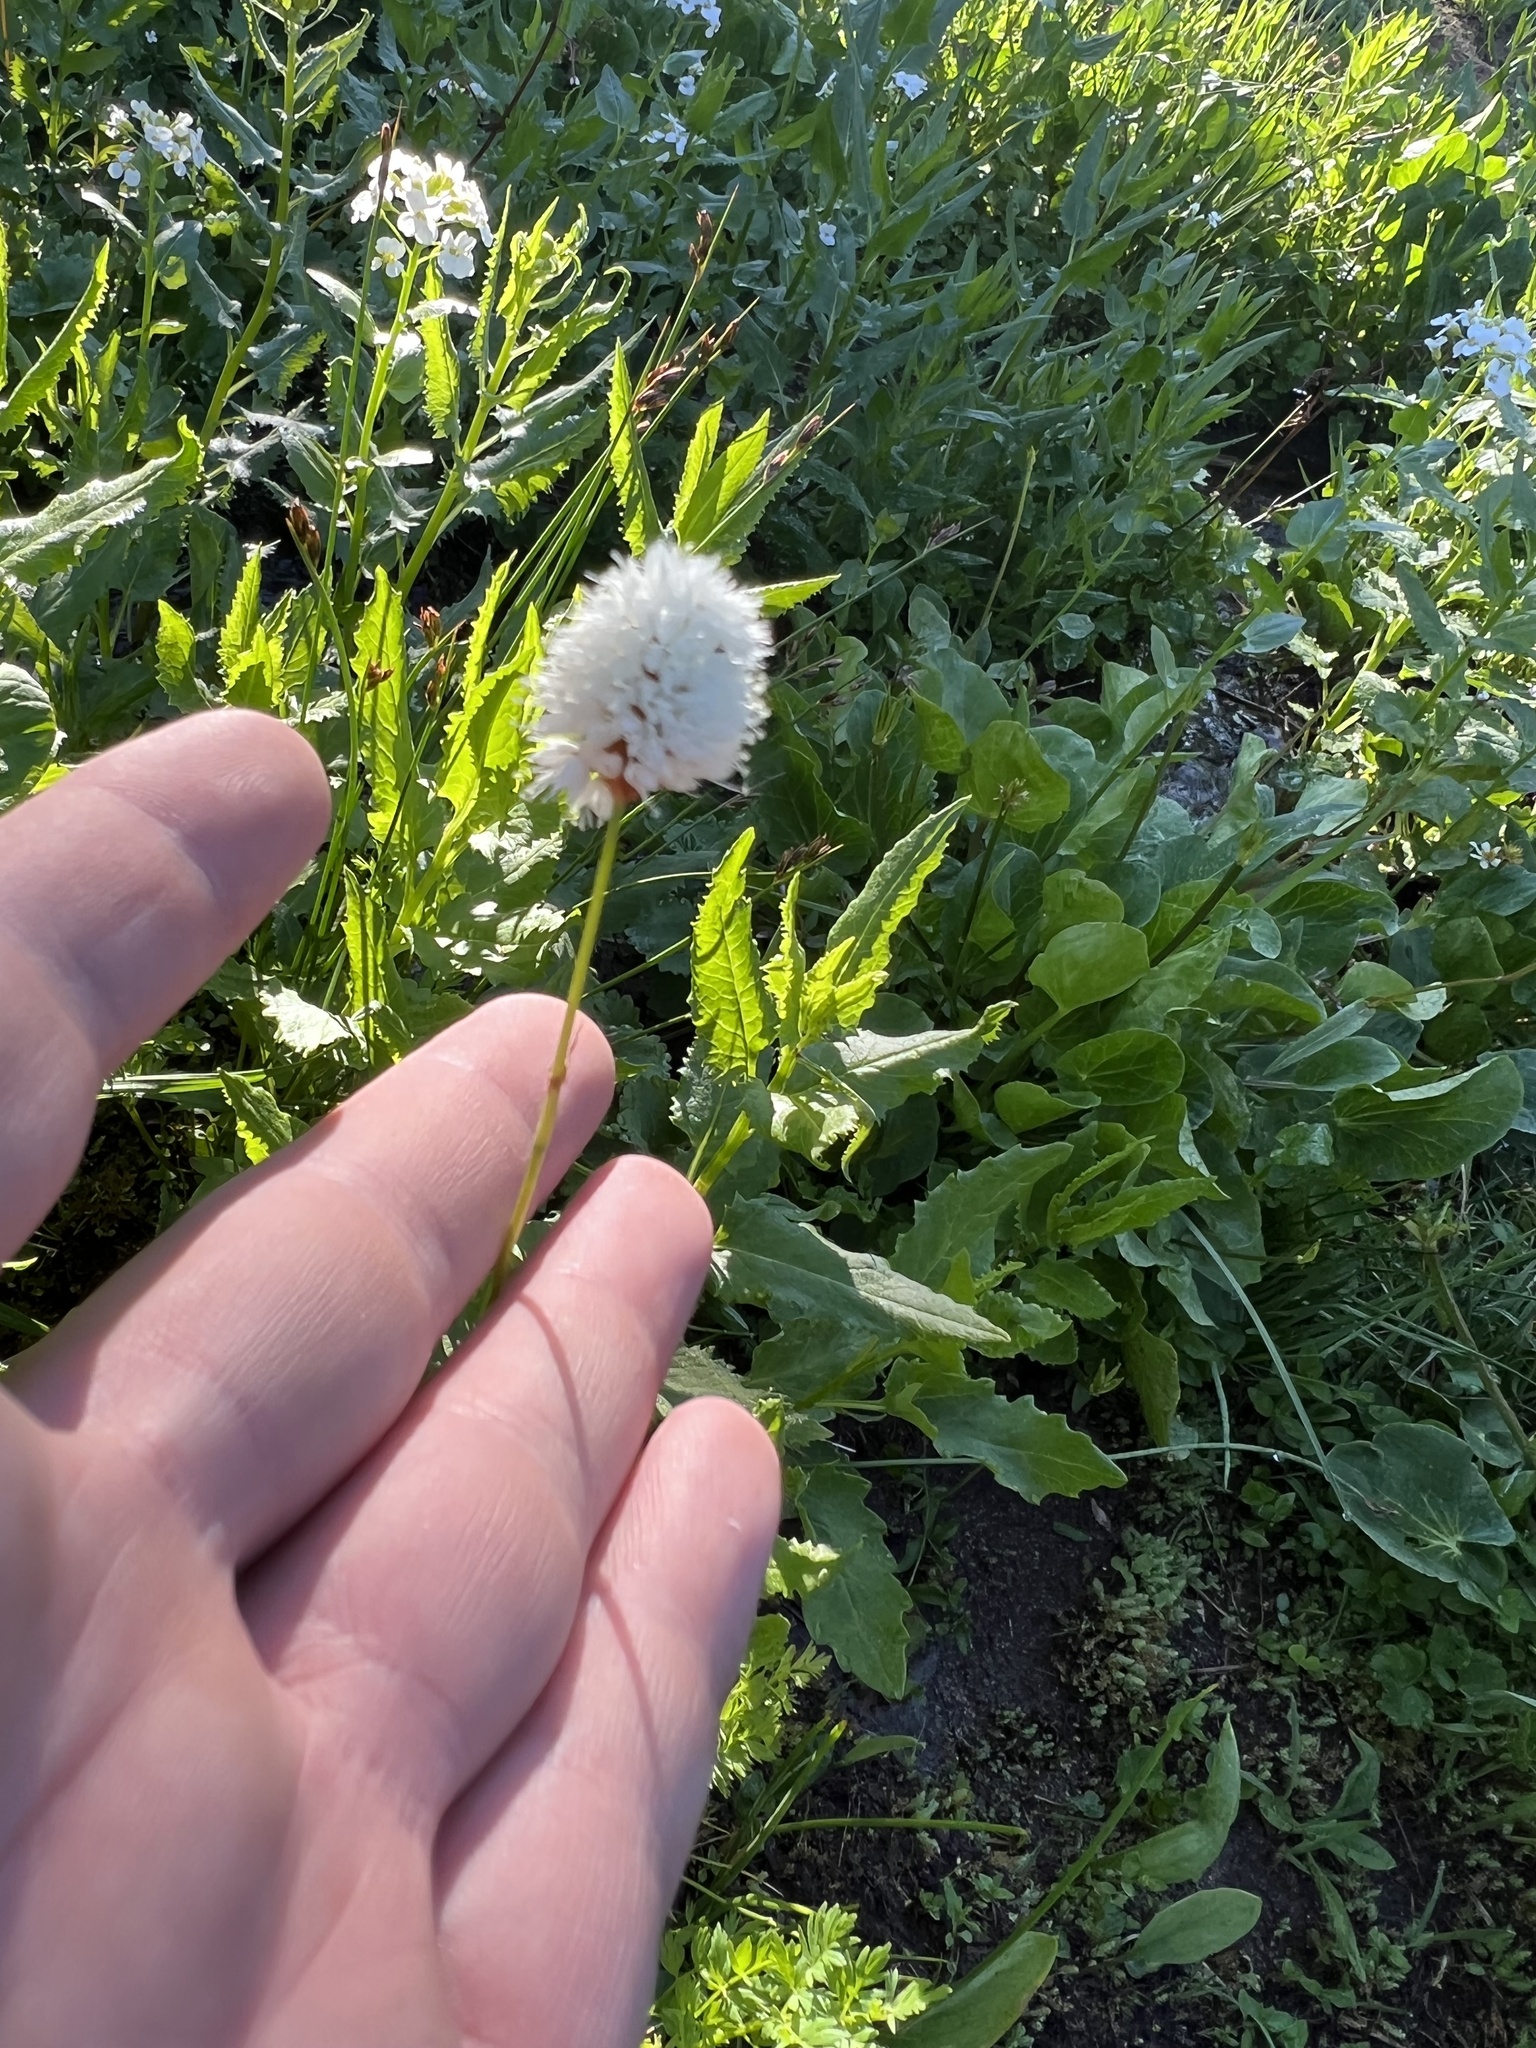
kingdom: Plantae
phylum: Tracheophyta
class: Magnoliopsida
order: Caryophyllales
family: Polygonaceae
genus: Bistorta
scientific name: Bistorta bistortoides
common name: American bistort
